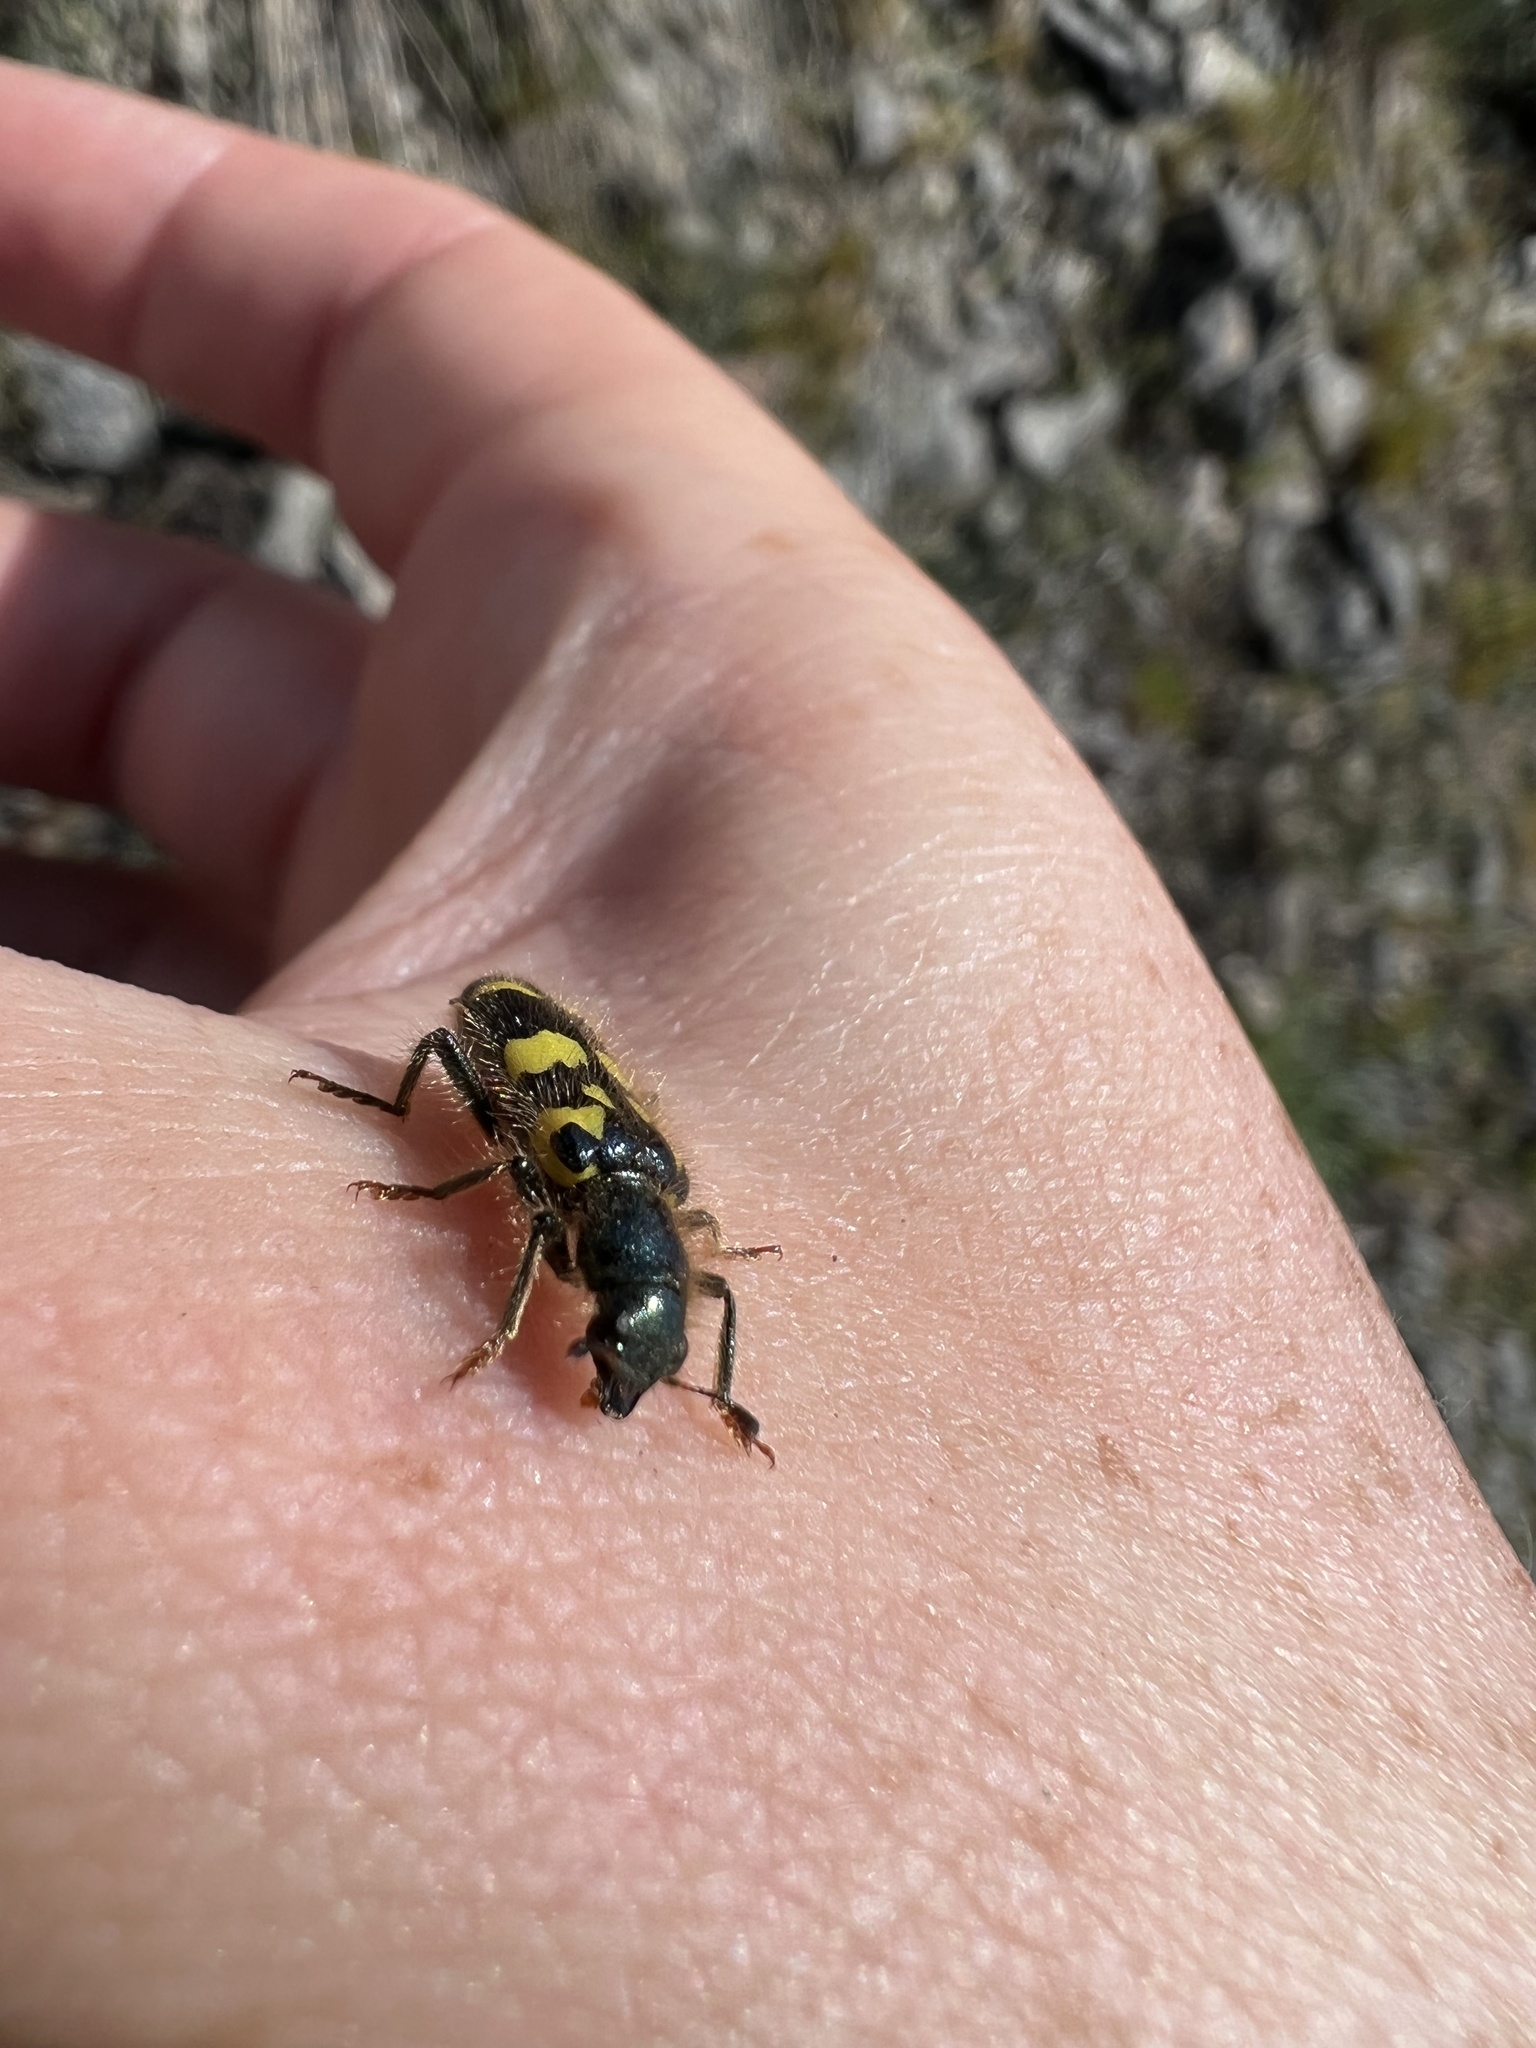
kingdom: Animalia
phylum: Arthropoda
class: Insecta
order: Coleoptera
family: Cleridae
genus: Trichodes
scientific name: Trichodes ornatus
